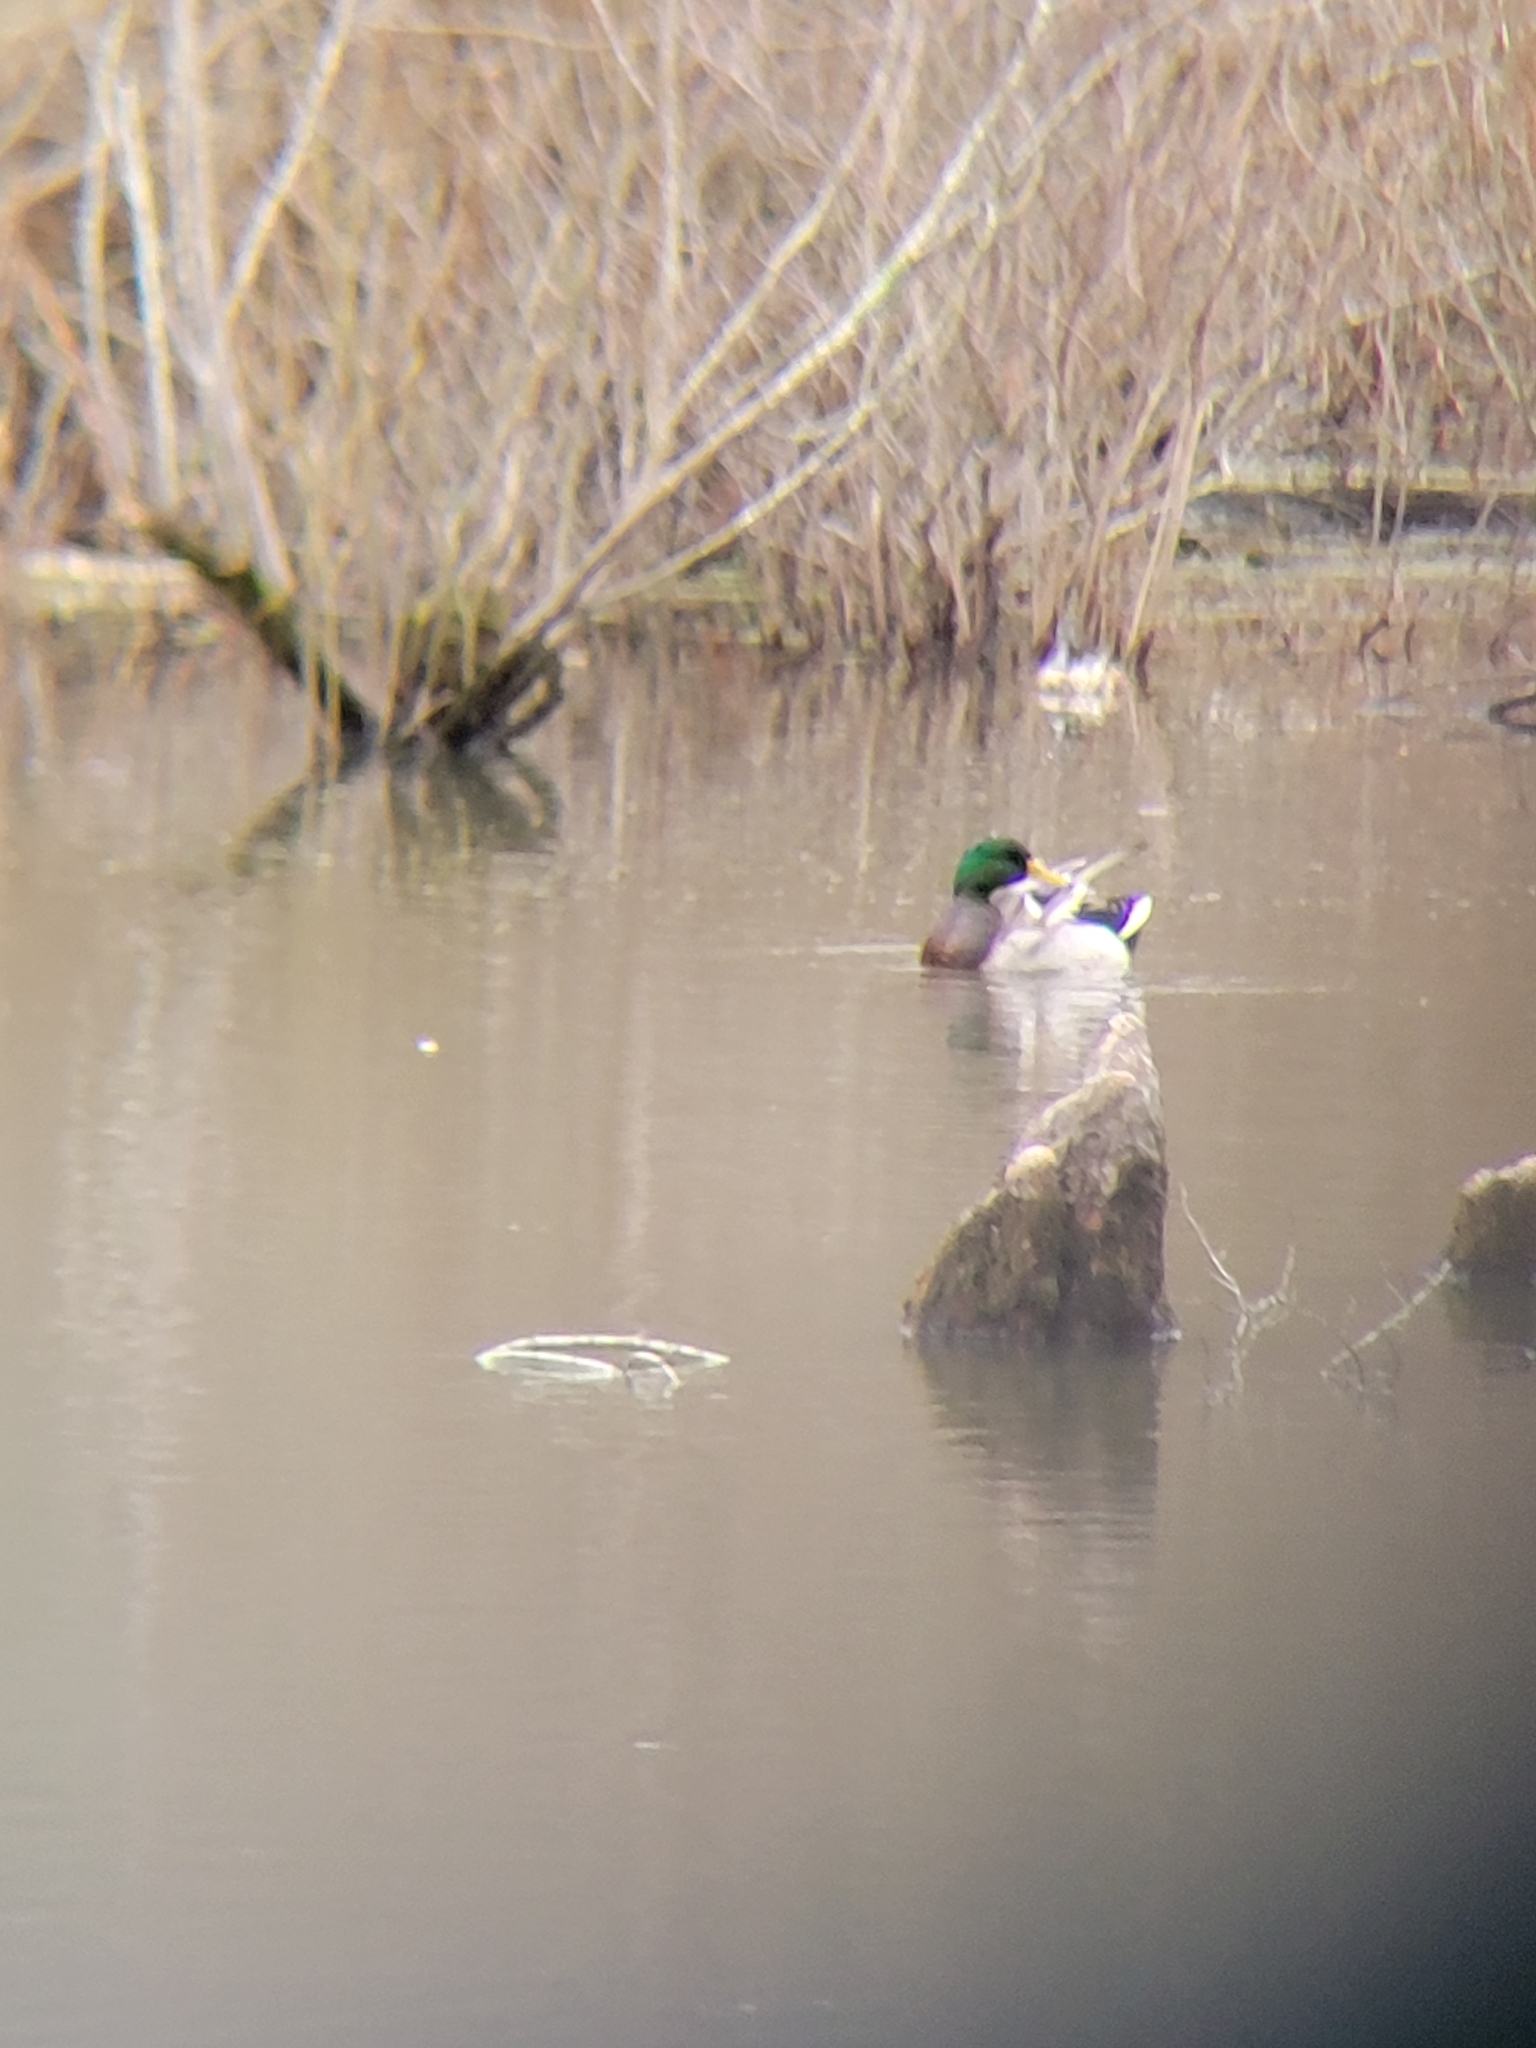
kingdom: Animalia
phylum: Chordata
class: Aves
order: Anseriformes
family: Anatidae
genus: Anas
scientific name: Anas platyrhynchos
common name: Mallard
